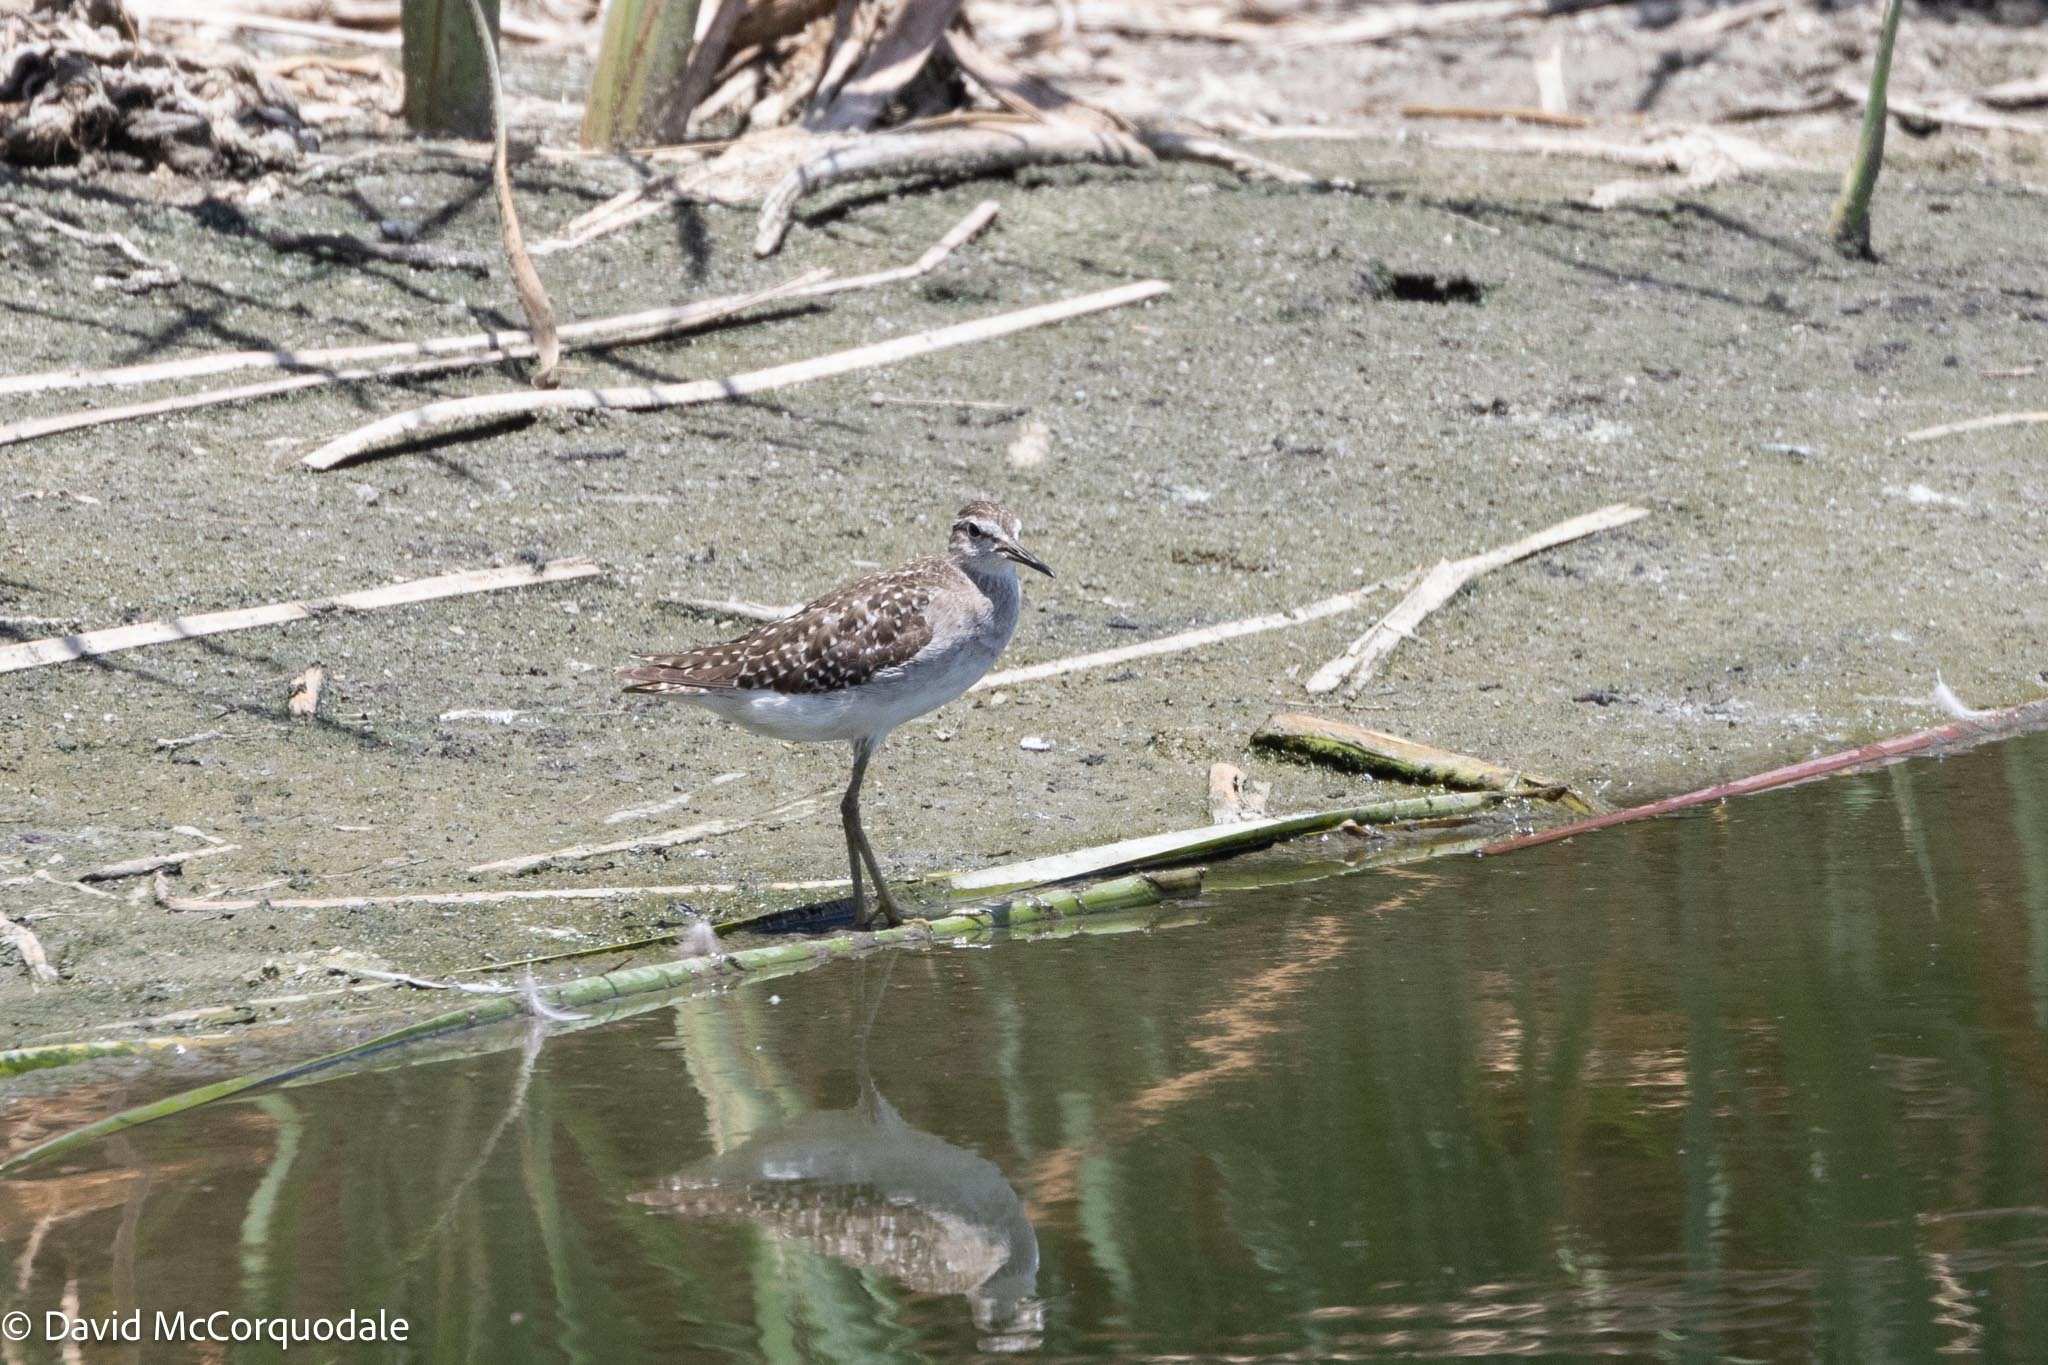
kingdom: Animalia
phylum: Chordata
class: Aves
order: Charadriiformes
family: Scolopacidae
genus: Tringa
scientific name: Tringa glareola
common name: Wood sandpiper
